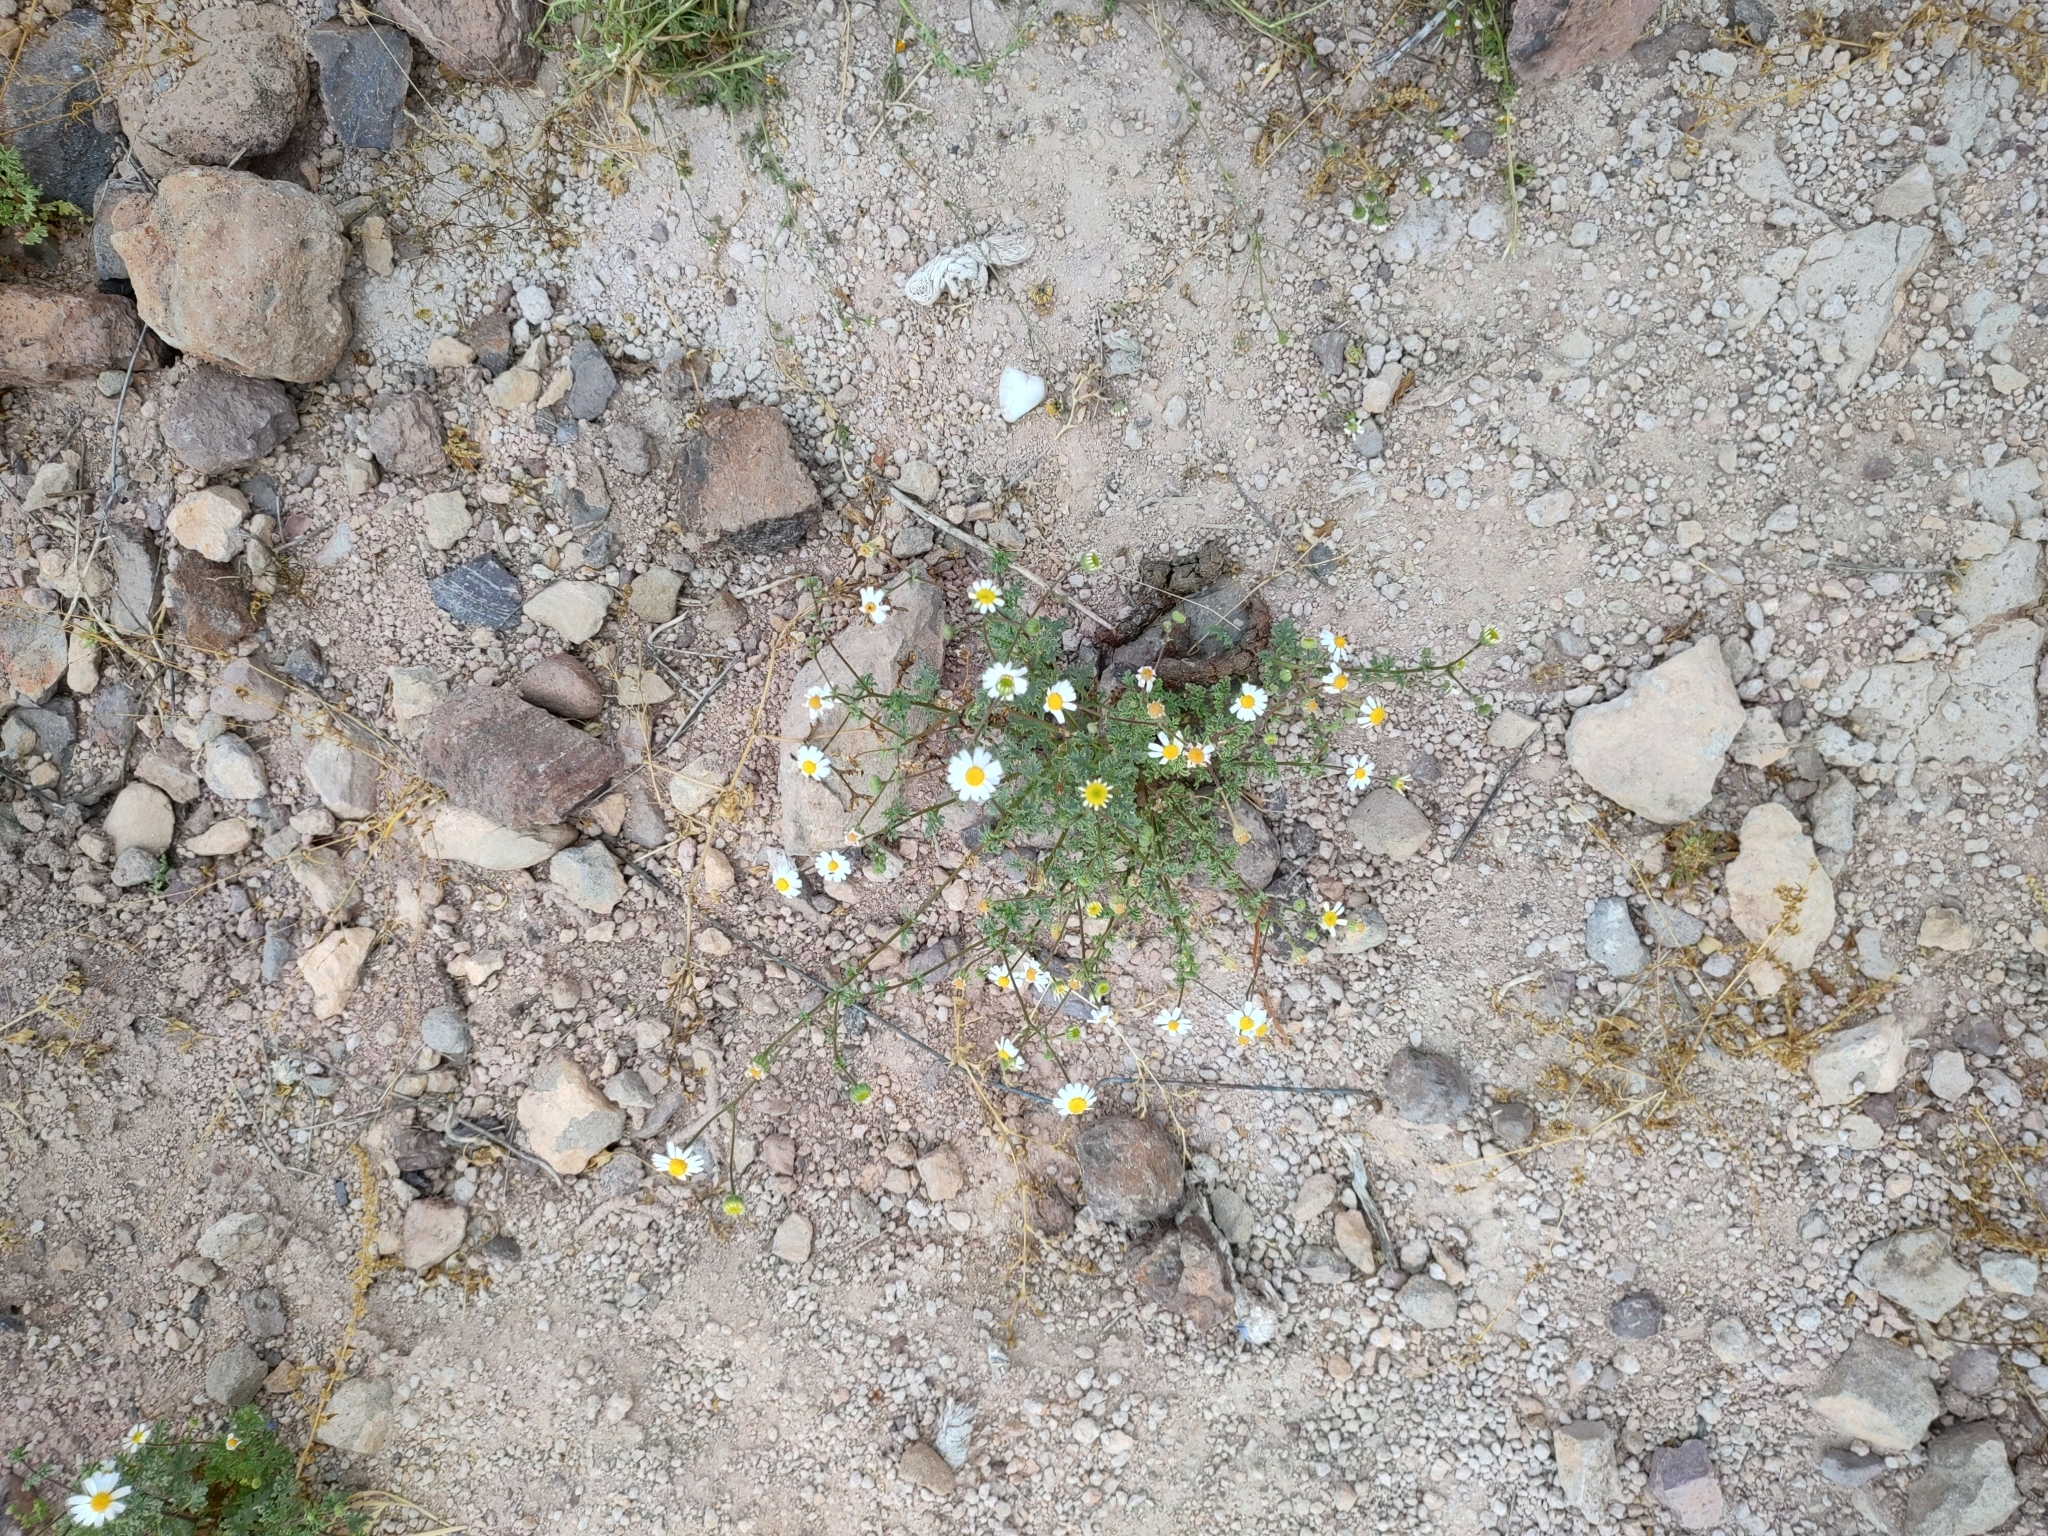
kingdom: Plantae
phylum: Tracheophyta
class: Magnoliopsida
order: Asterales
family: Asteraceae
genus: Perityle
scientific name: Perityle crassifolia
